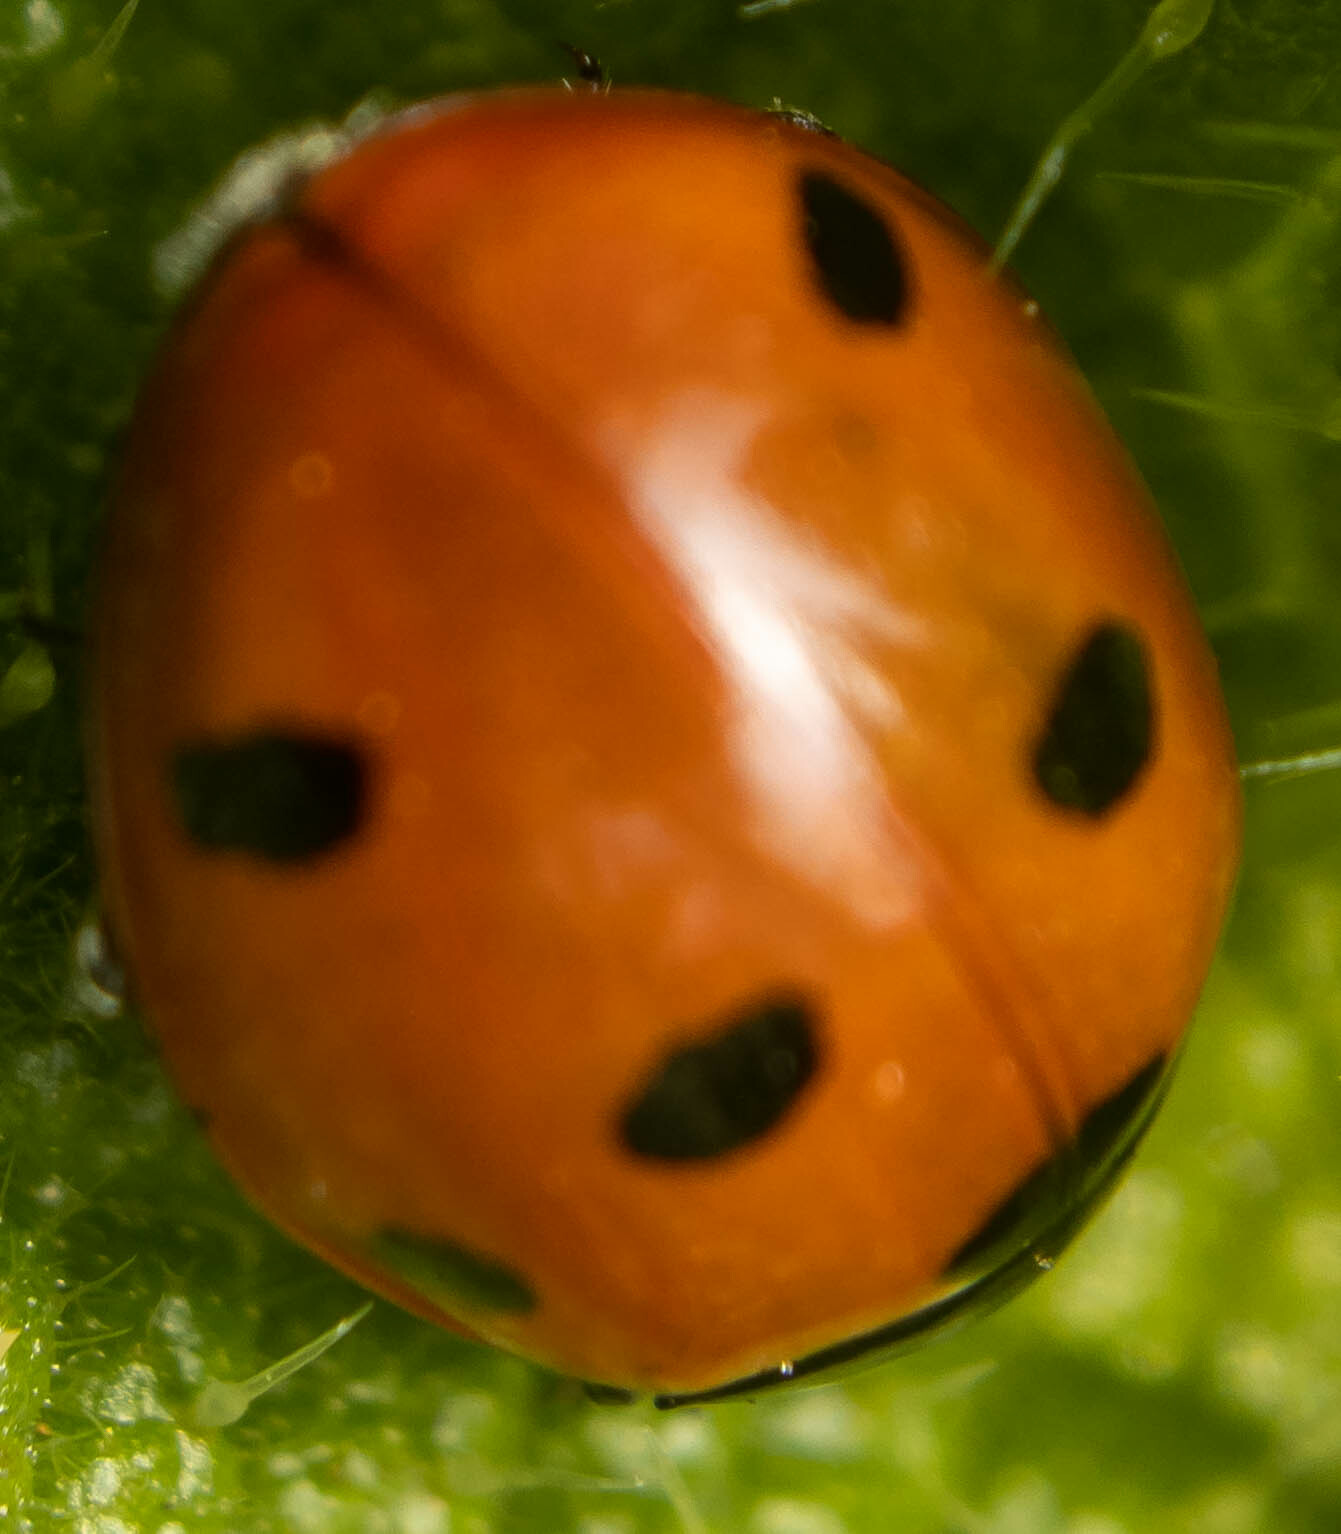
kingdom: Animalia
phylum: Arthropoda
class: Insecta
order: Coleoptera
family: Coccinellidae
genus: Coccinella
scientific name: Coccinella septempunctata
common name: Sevenspotted lady beetle
